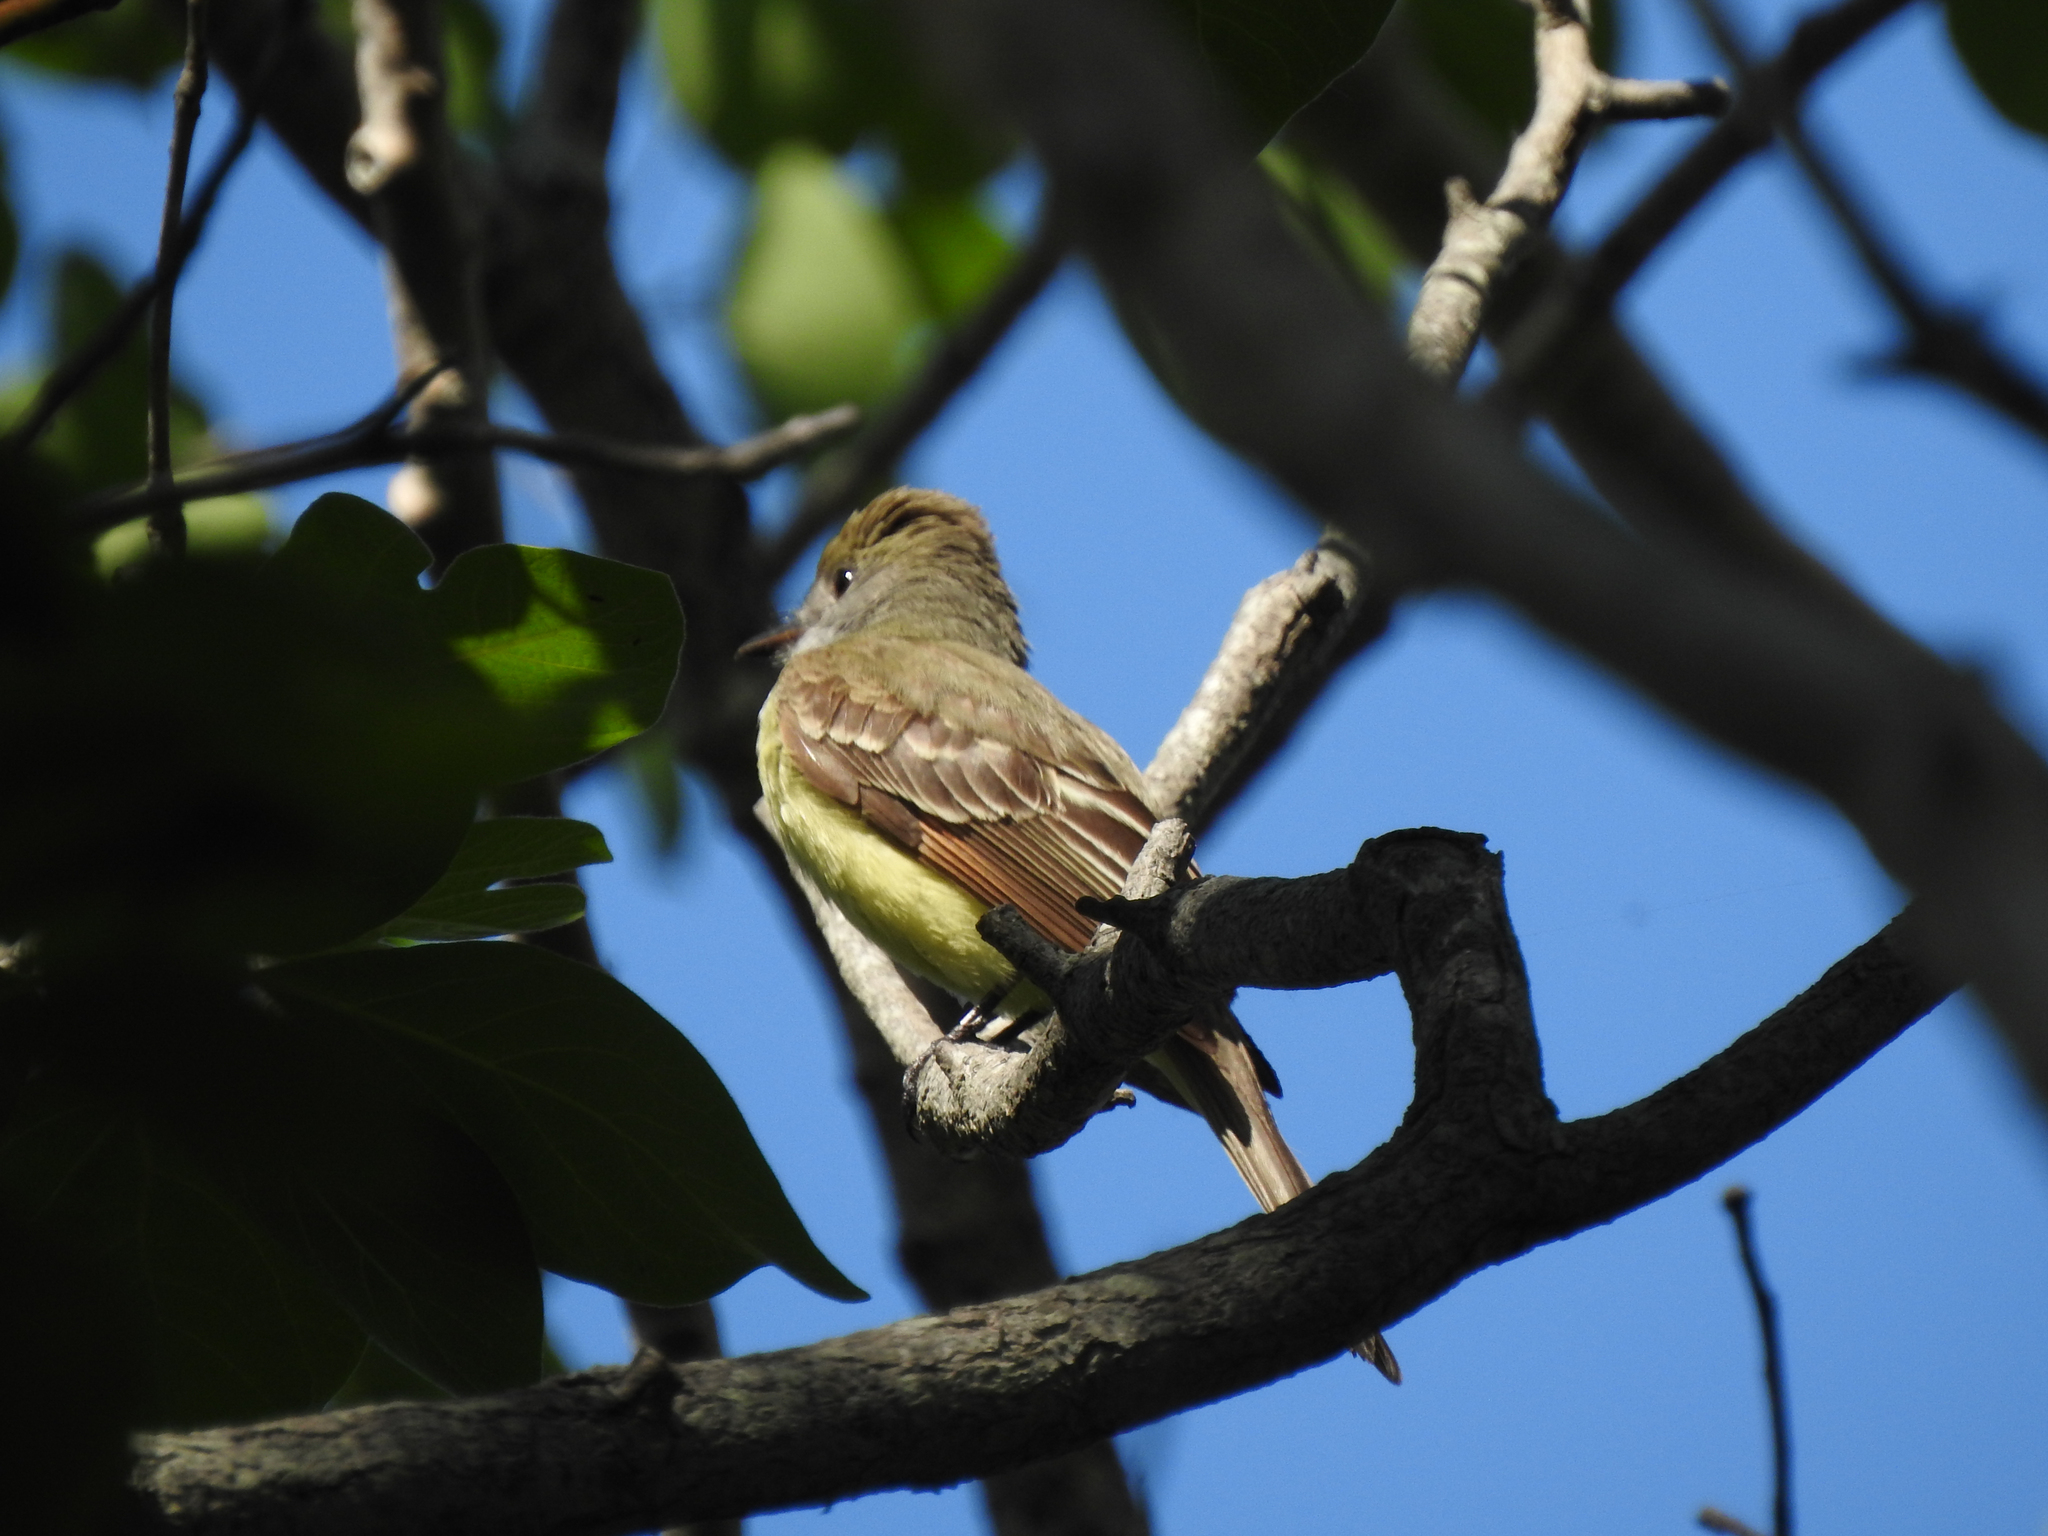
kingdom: Animalia
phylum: Chordata
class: Aves
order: Passeriformes
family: Tyrannidae
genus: Myiarchus
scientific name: Myiarchus crinitus
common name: Great crested flycatcher
